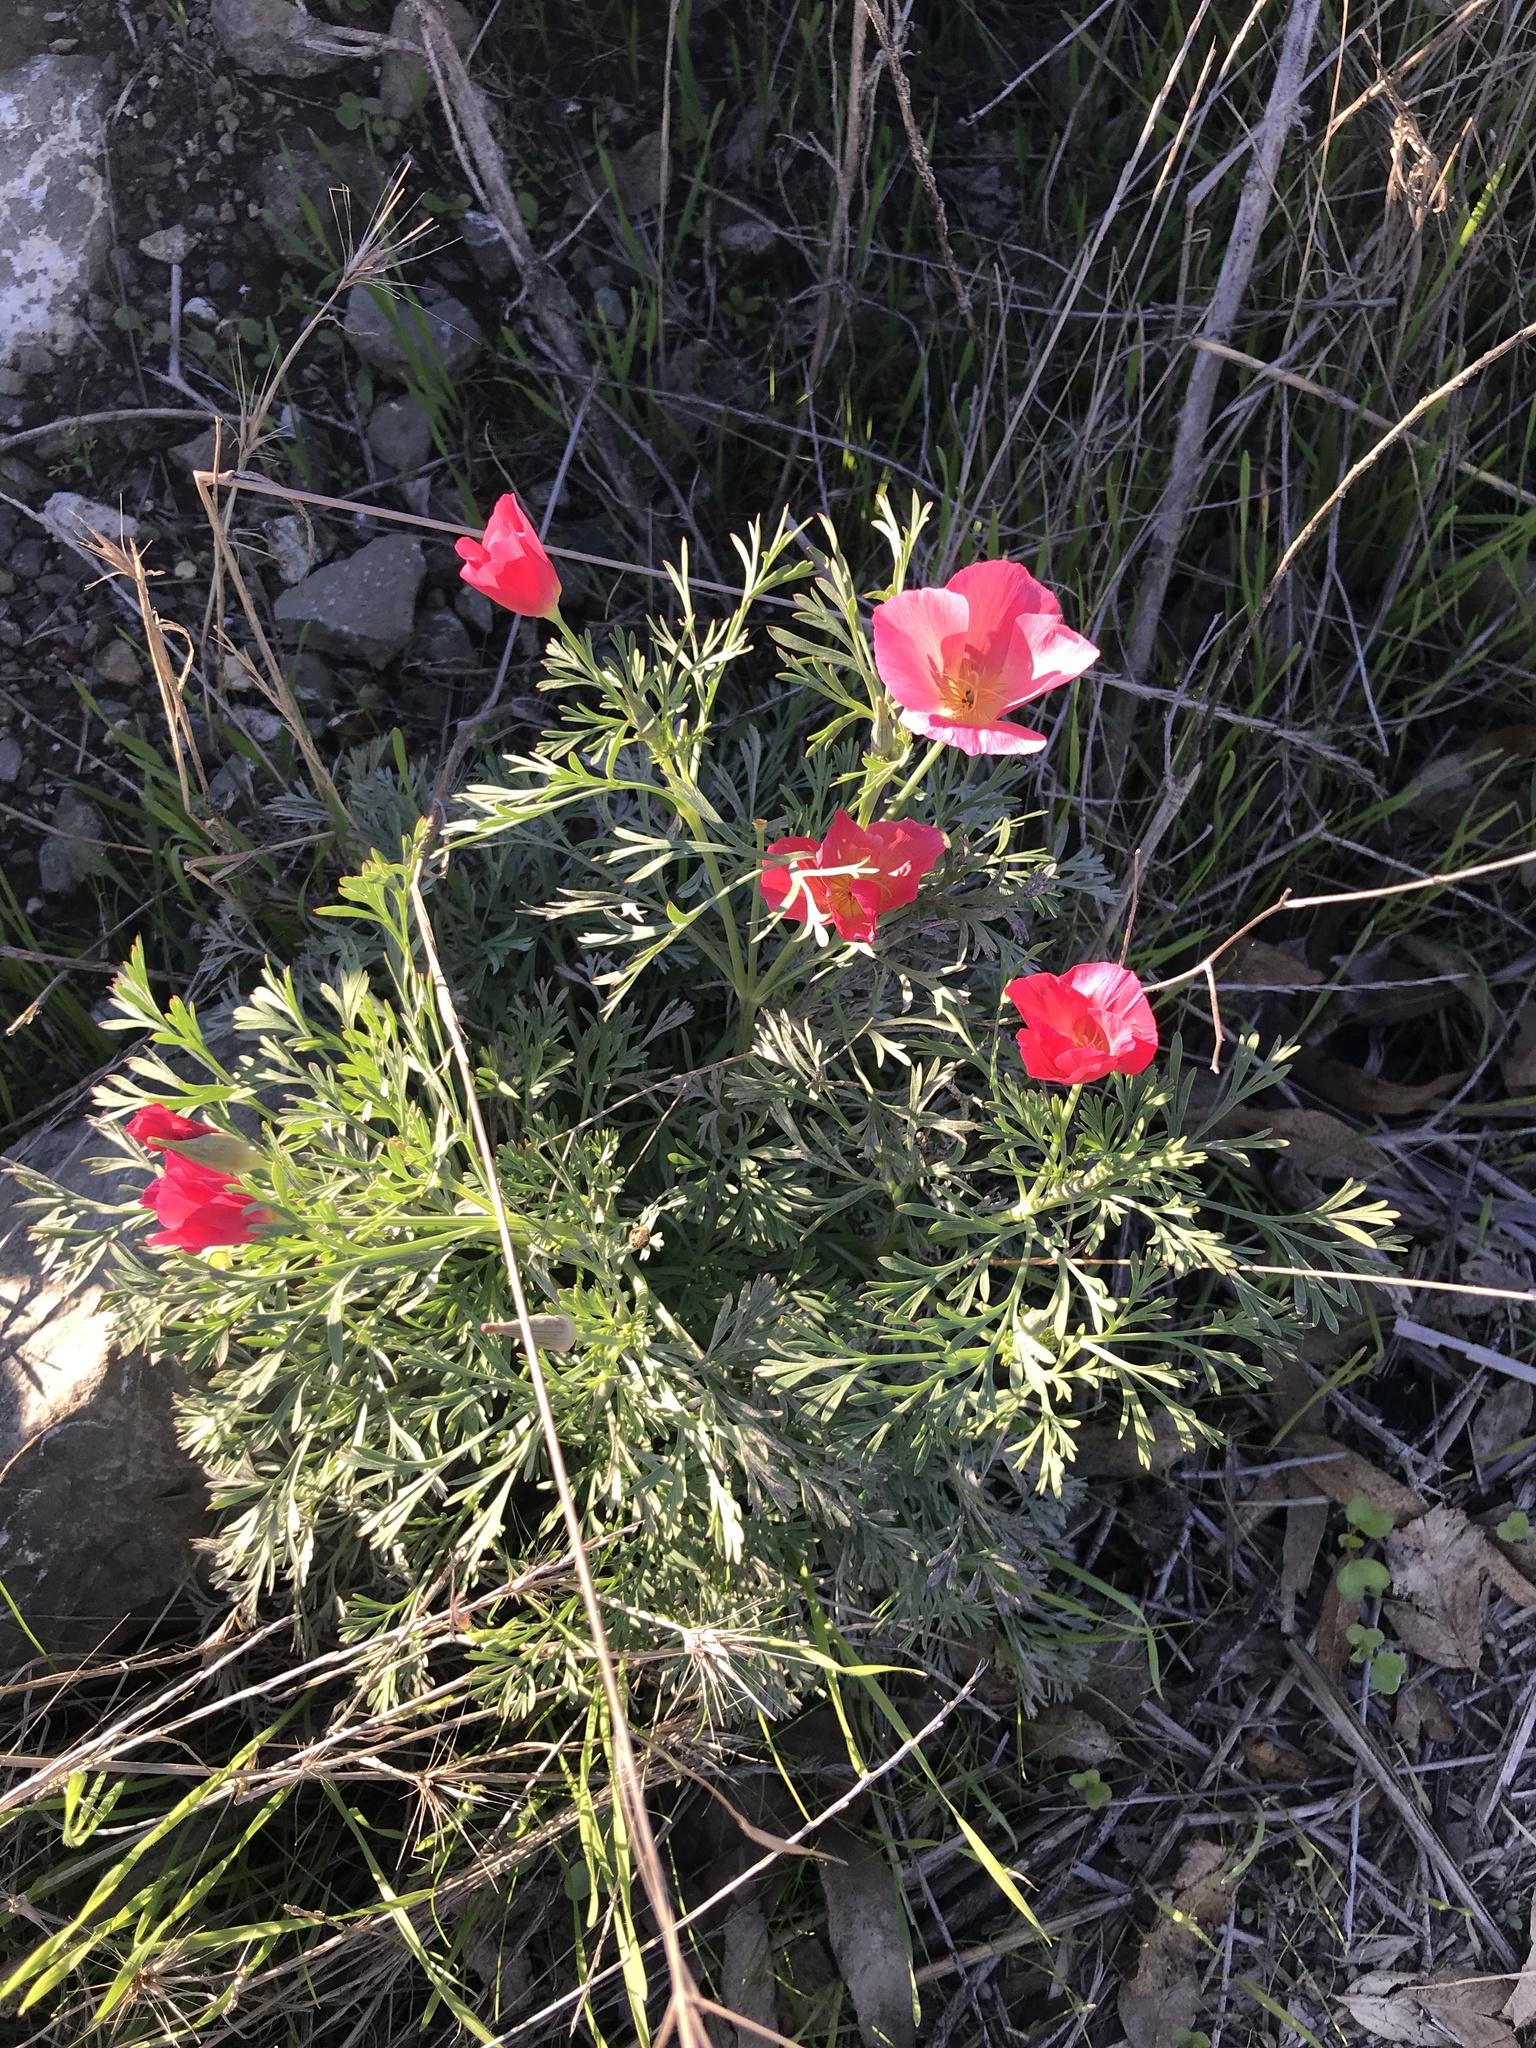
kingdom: Plantae
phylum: Tracheophyta
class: Magnoliopsida
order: Ranunculales
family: Papaveraceae
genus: Eschscholzia
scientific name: Eschscholzia californica
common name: California poppy
